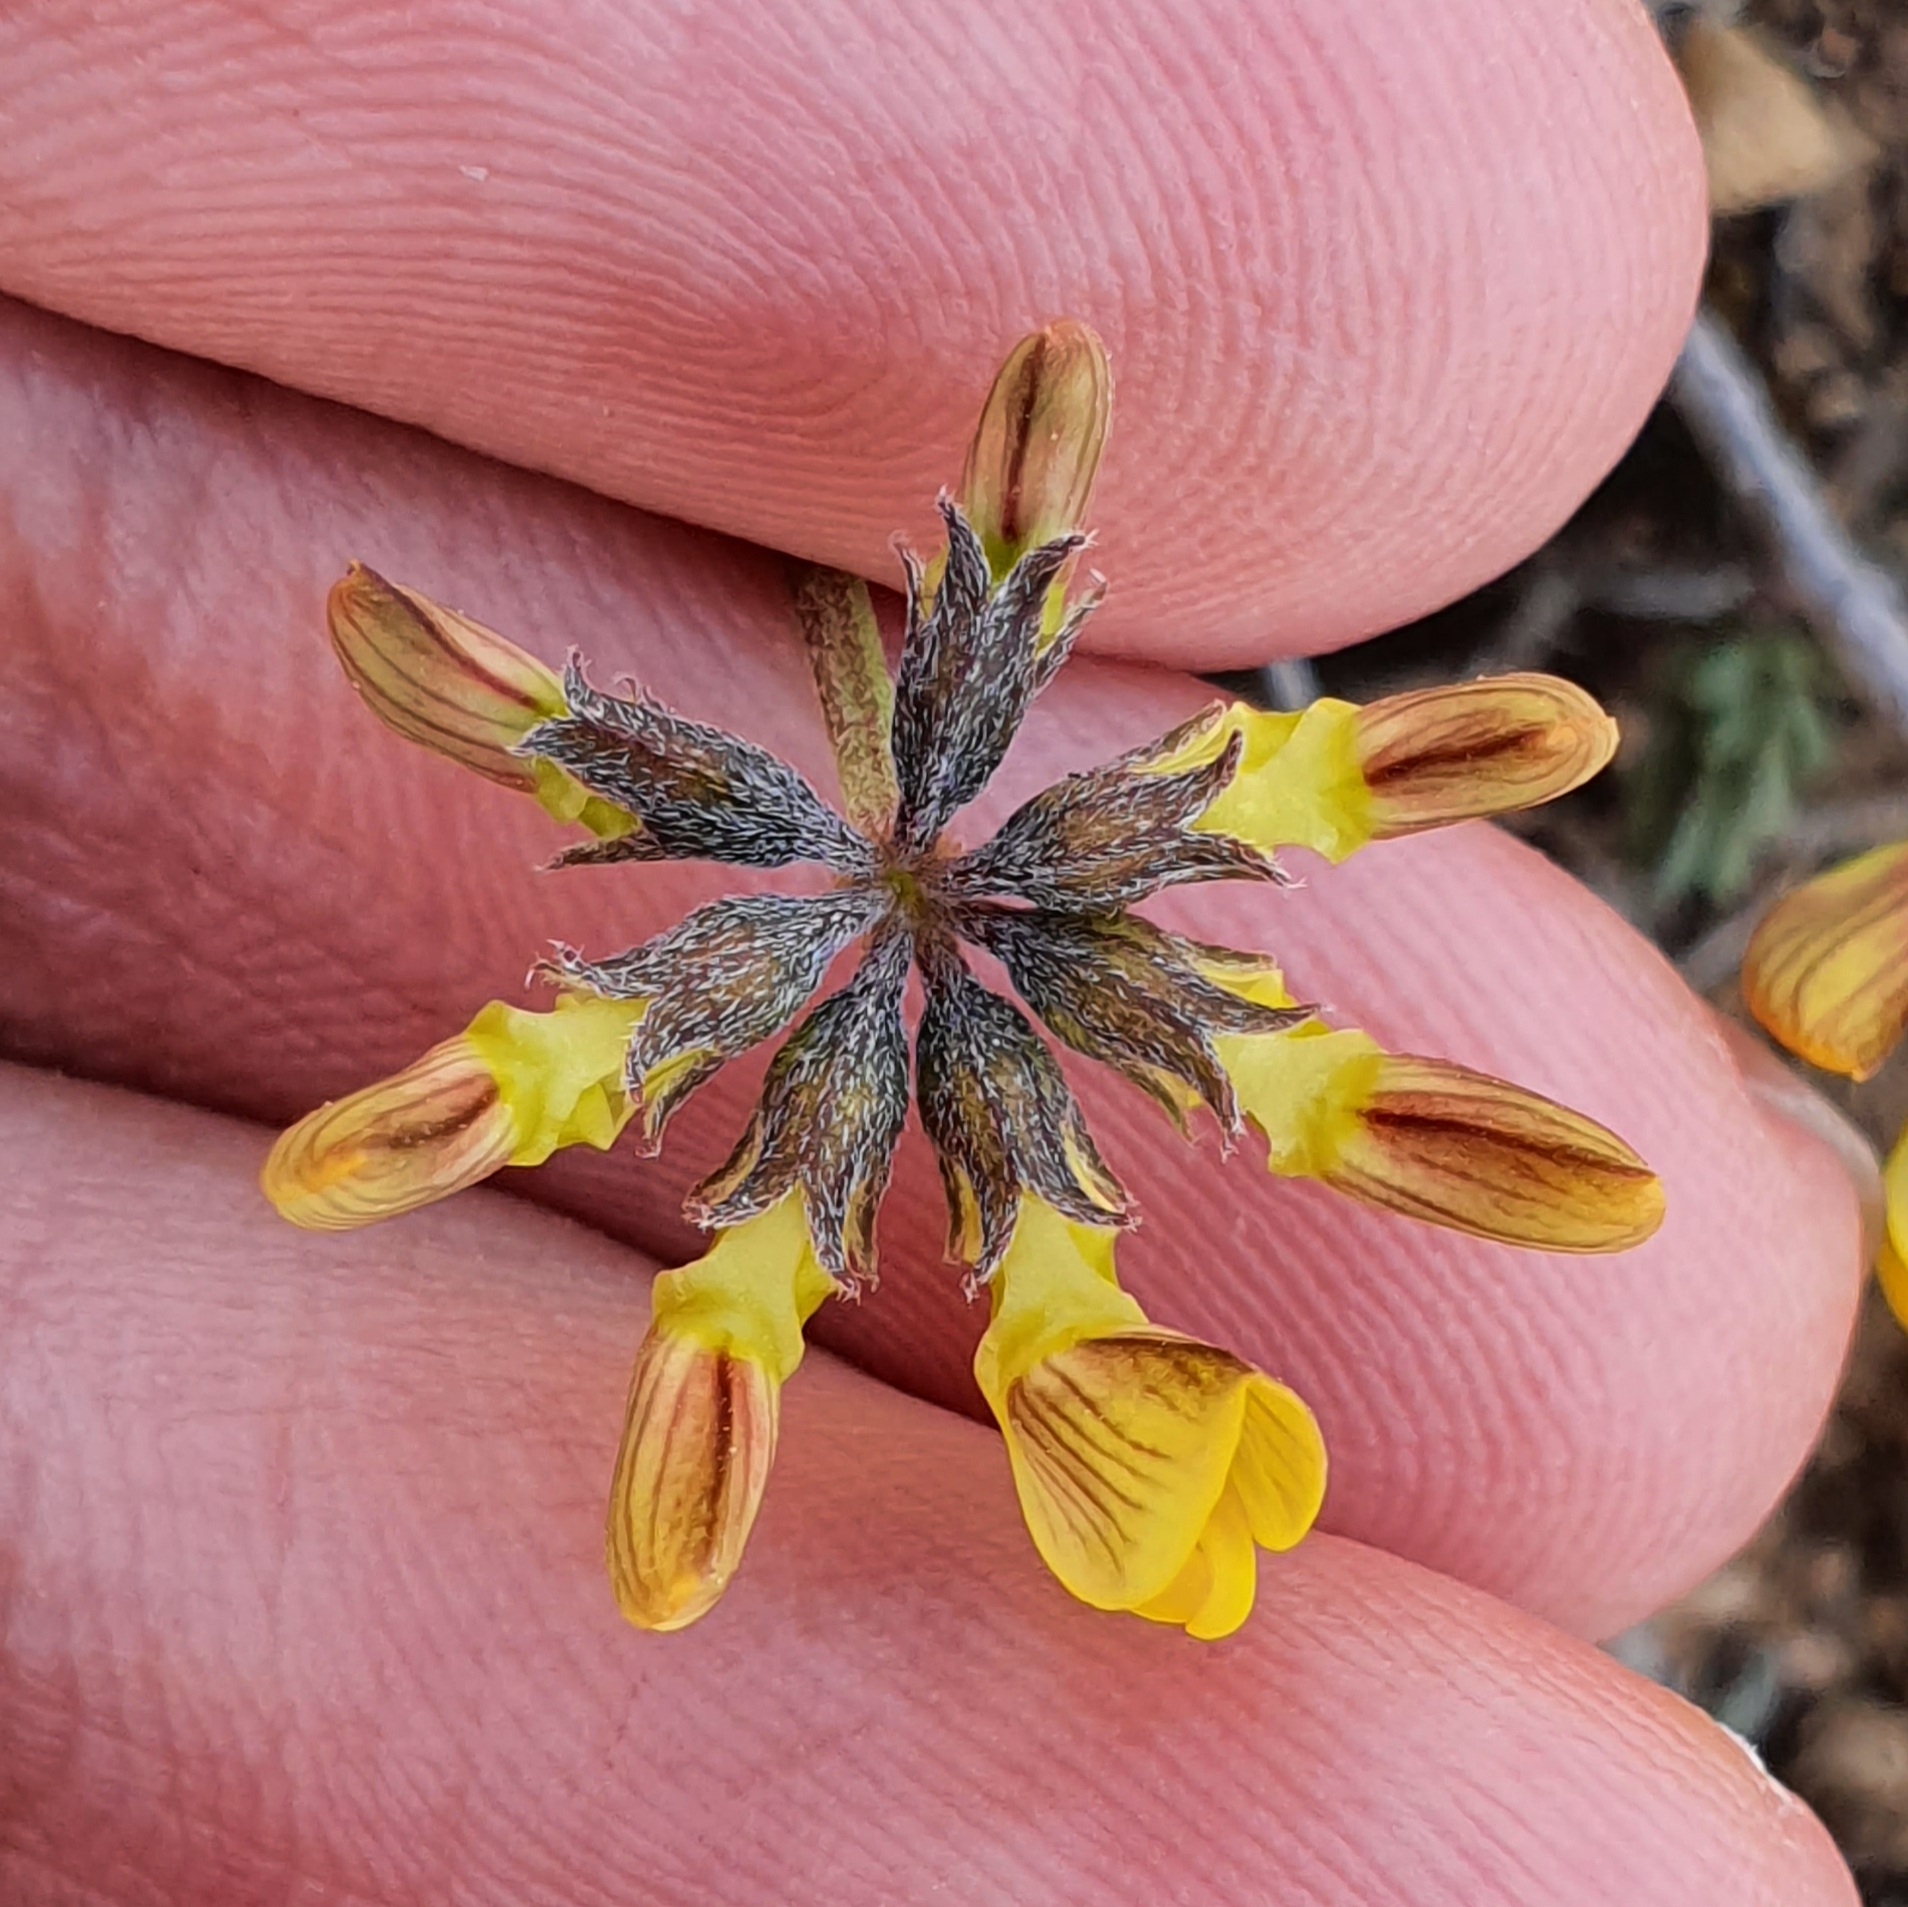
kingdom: Plantae
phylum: Tracheophyta
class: Magnoliopsida
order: Fabales
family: Fabaceae
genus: Hippocrepis
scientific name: Hippocrepis atlantica
